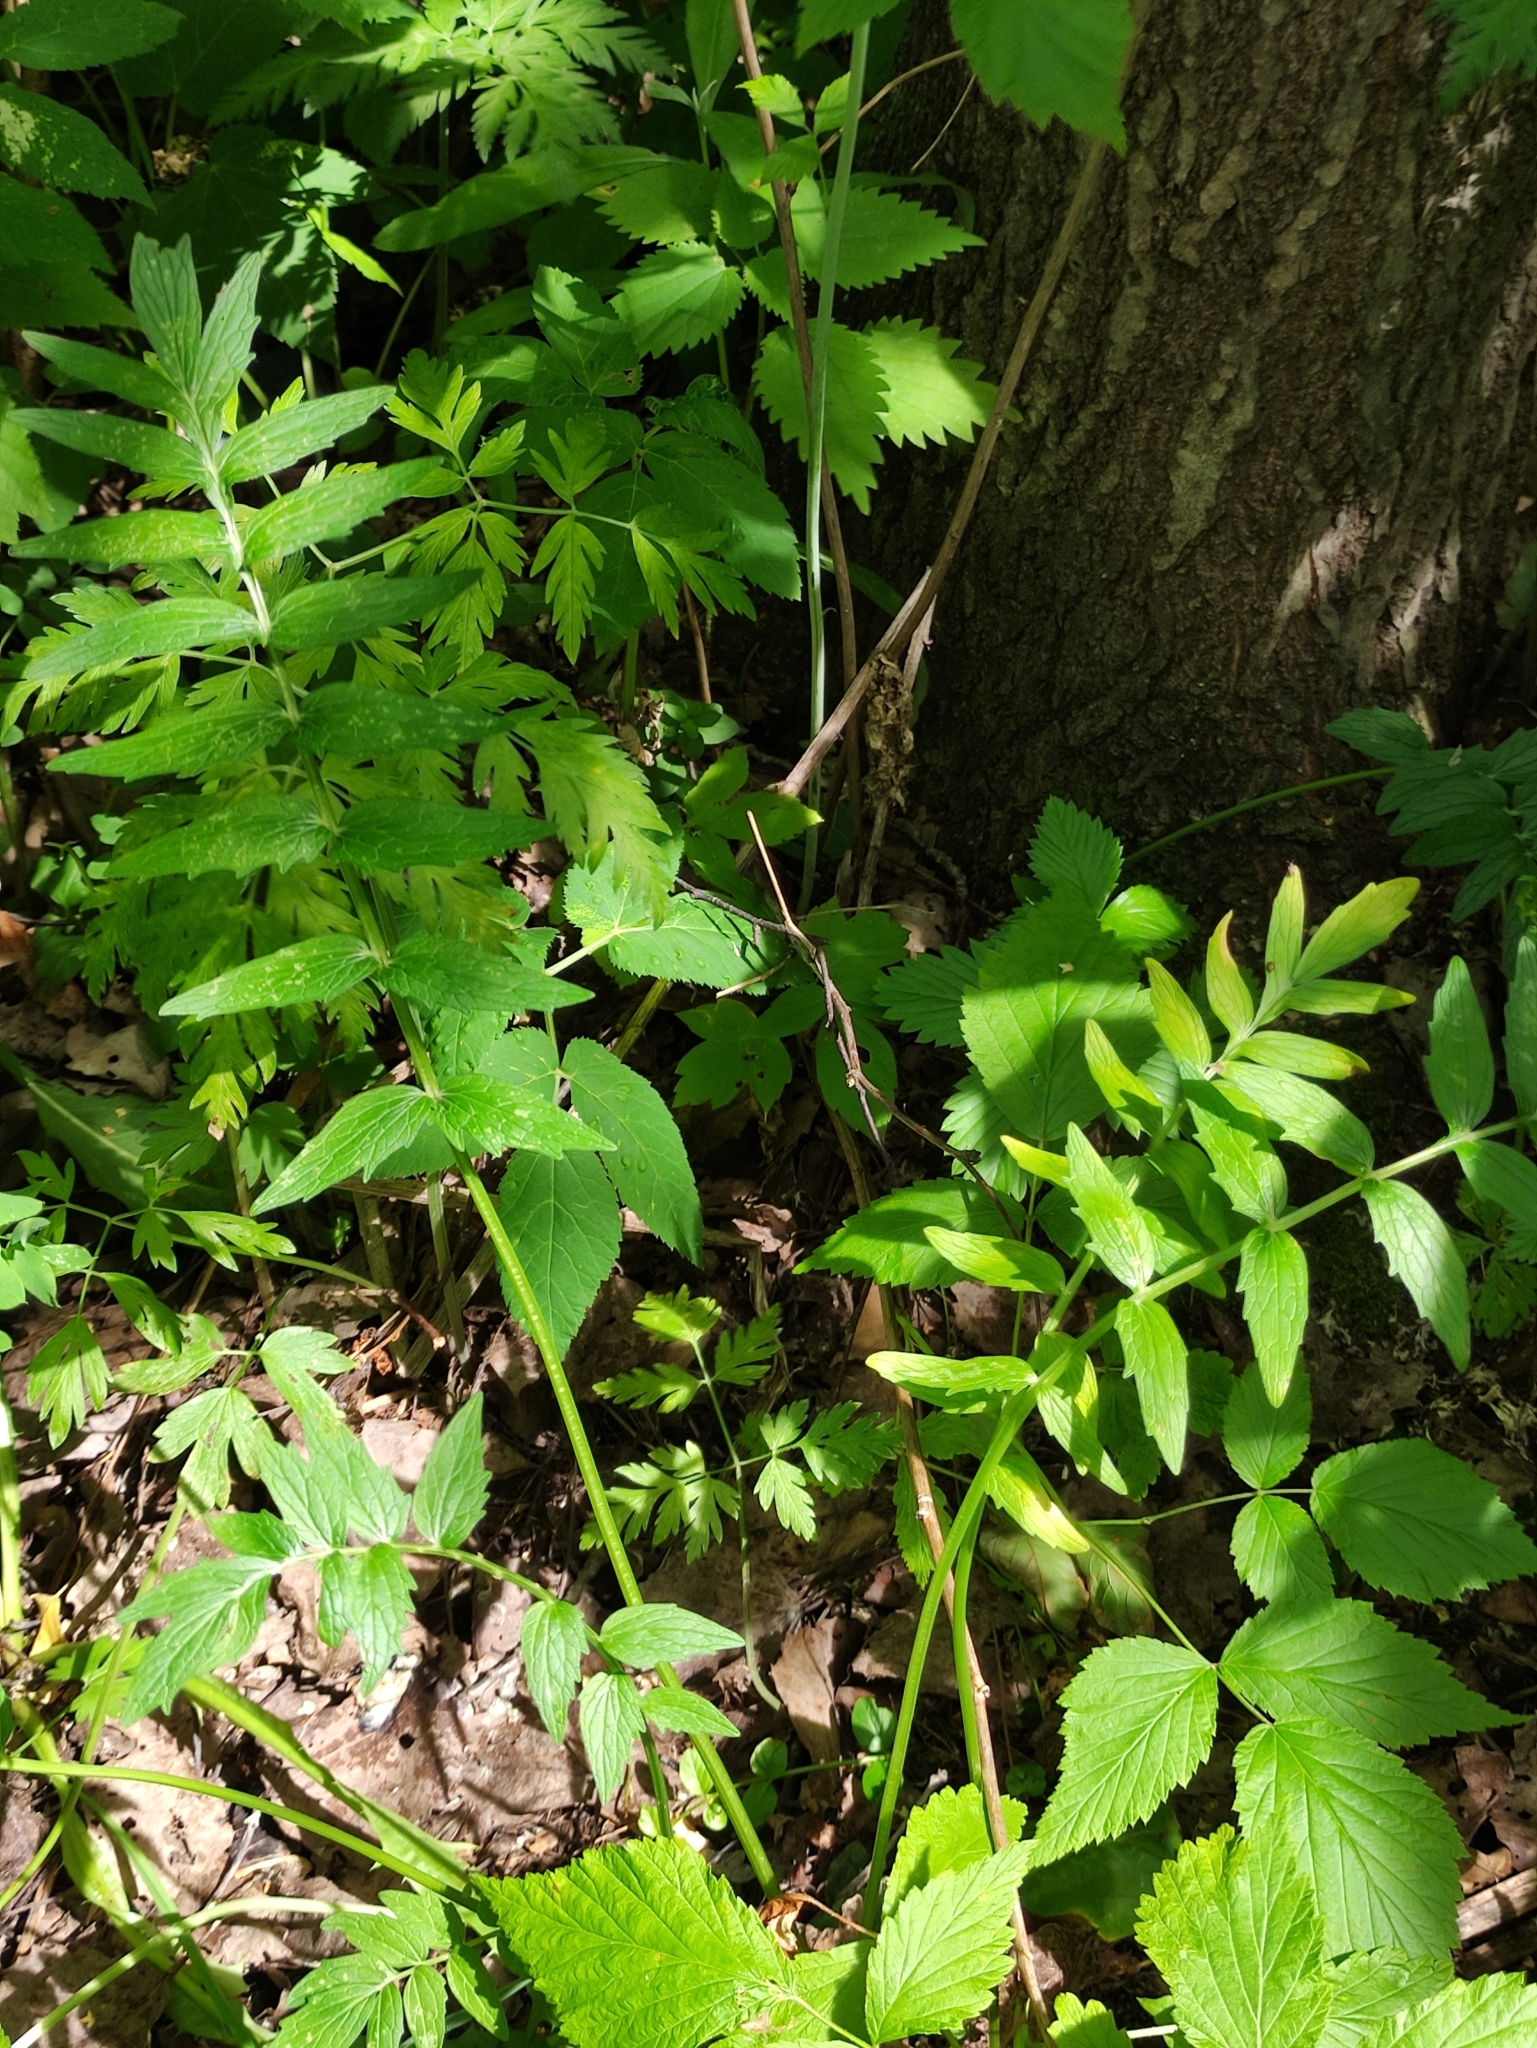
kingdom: Plantae
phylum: Tracheophyta
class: Magnoliopsida
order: Dipsacales
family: Caprifoliaceae
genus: Valeriana
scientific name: Valeriana officinalis
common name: Common valerian
